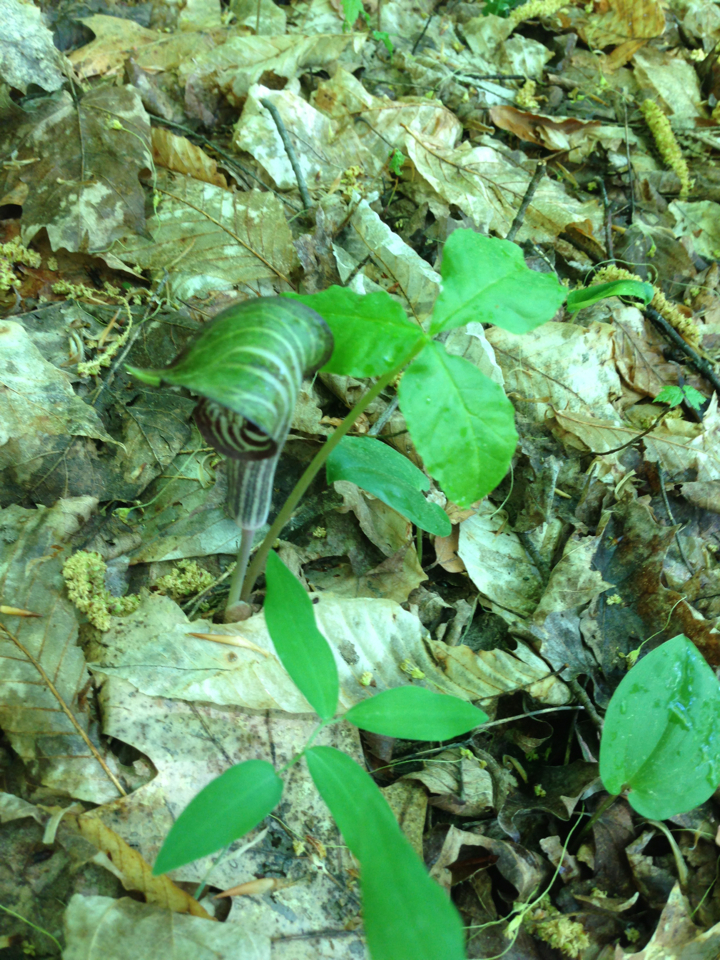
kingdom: Plantae
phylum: Tracheophyta
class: Liliopsida
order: Alismatales
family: Araceae
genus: Arisaema
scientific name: Arisaema triphyllum
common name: Jack-in-the-pulpit
